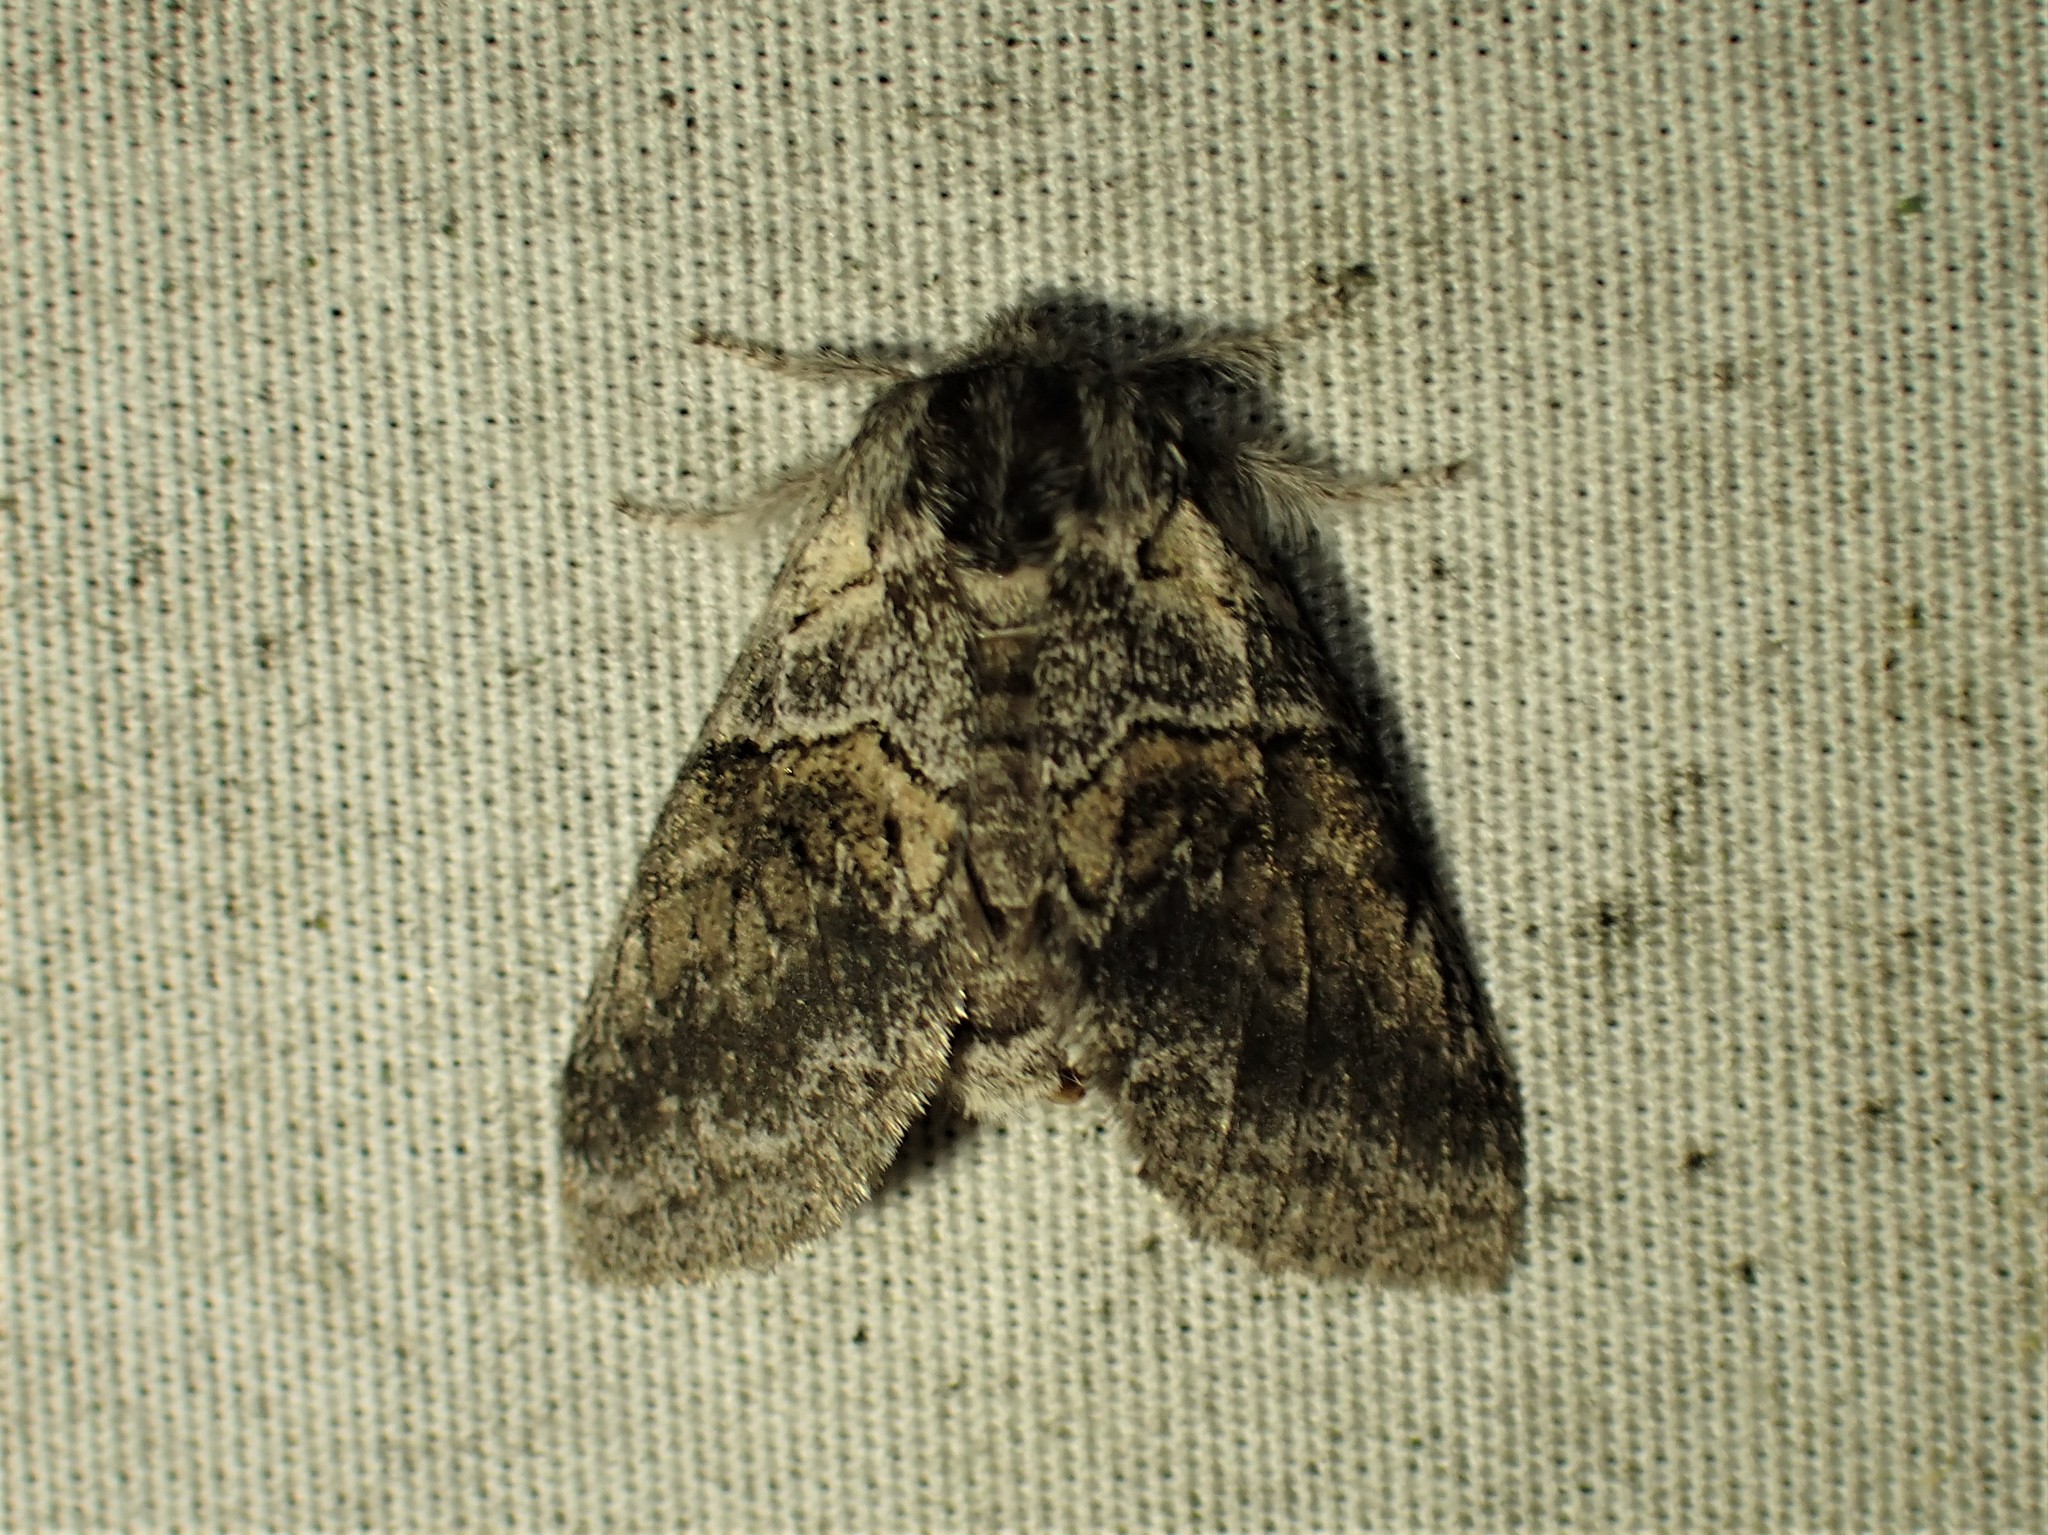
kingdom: Animalia
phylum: Arthropoda
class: Insecta
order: Lepidoptera
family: Notodontidae
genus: Gluphisia
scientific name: Gluphisia septentrionis
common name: Common gluphisia
